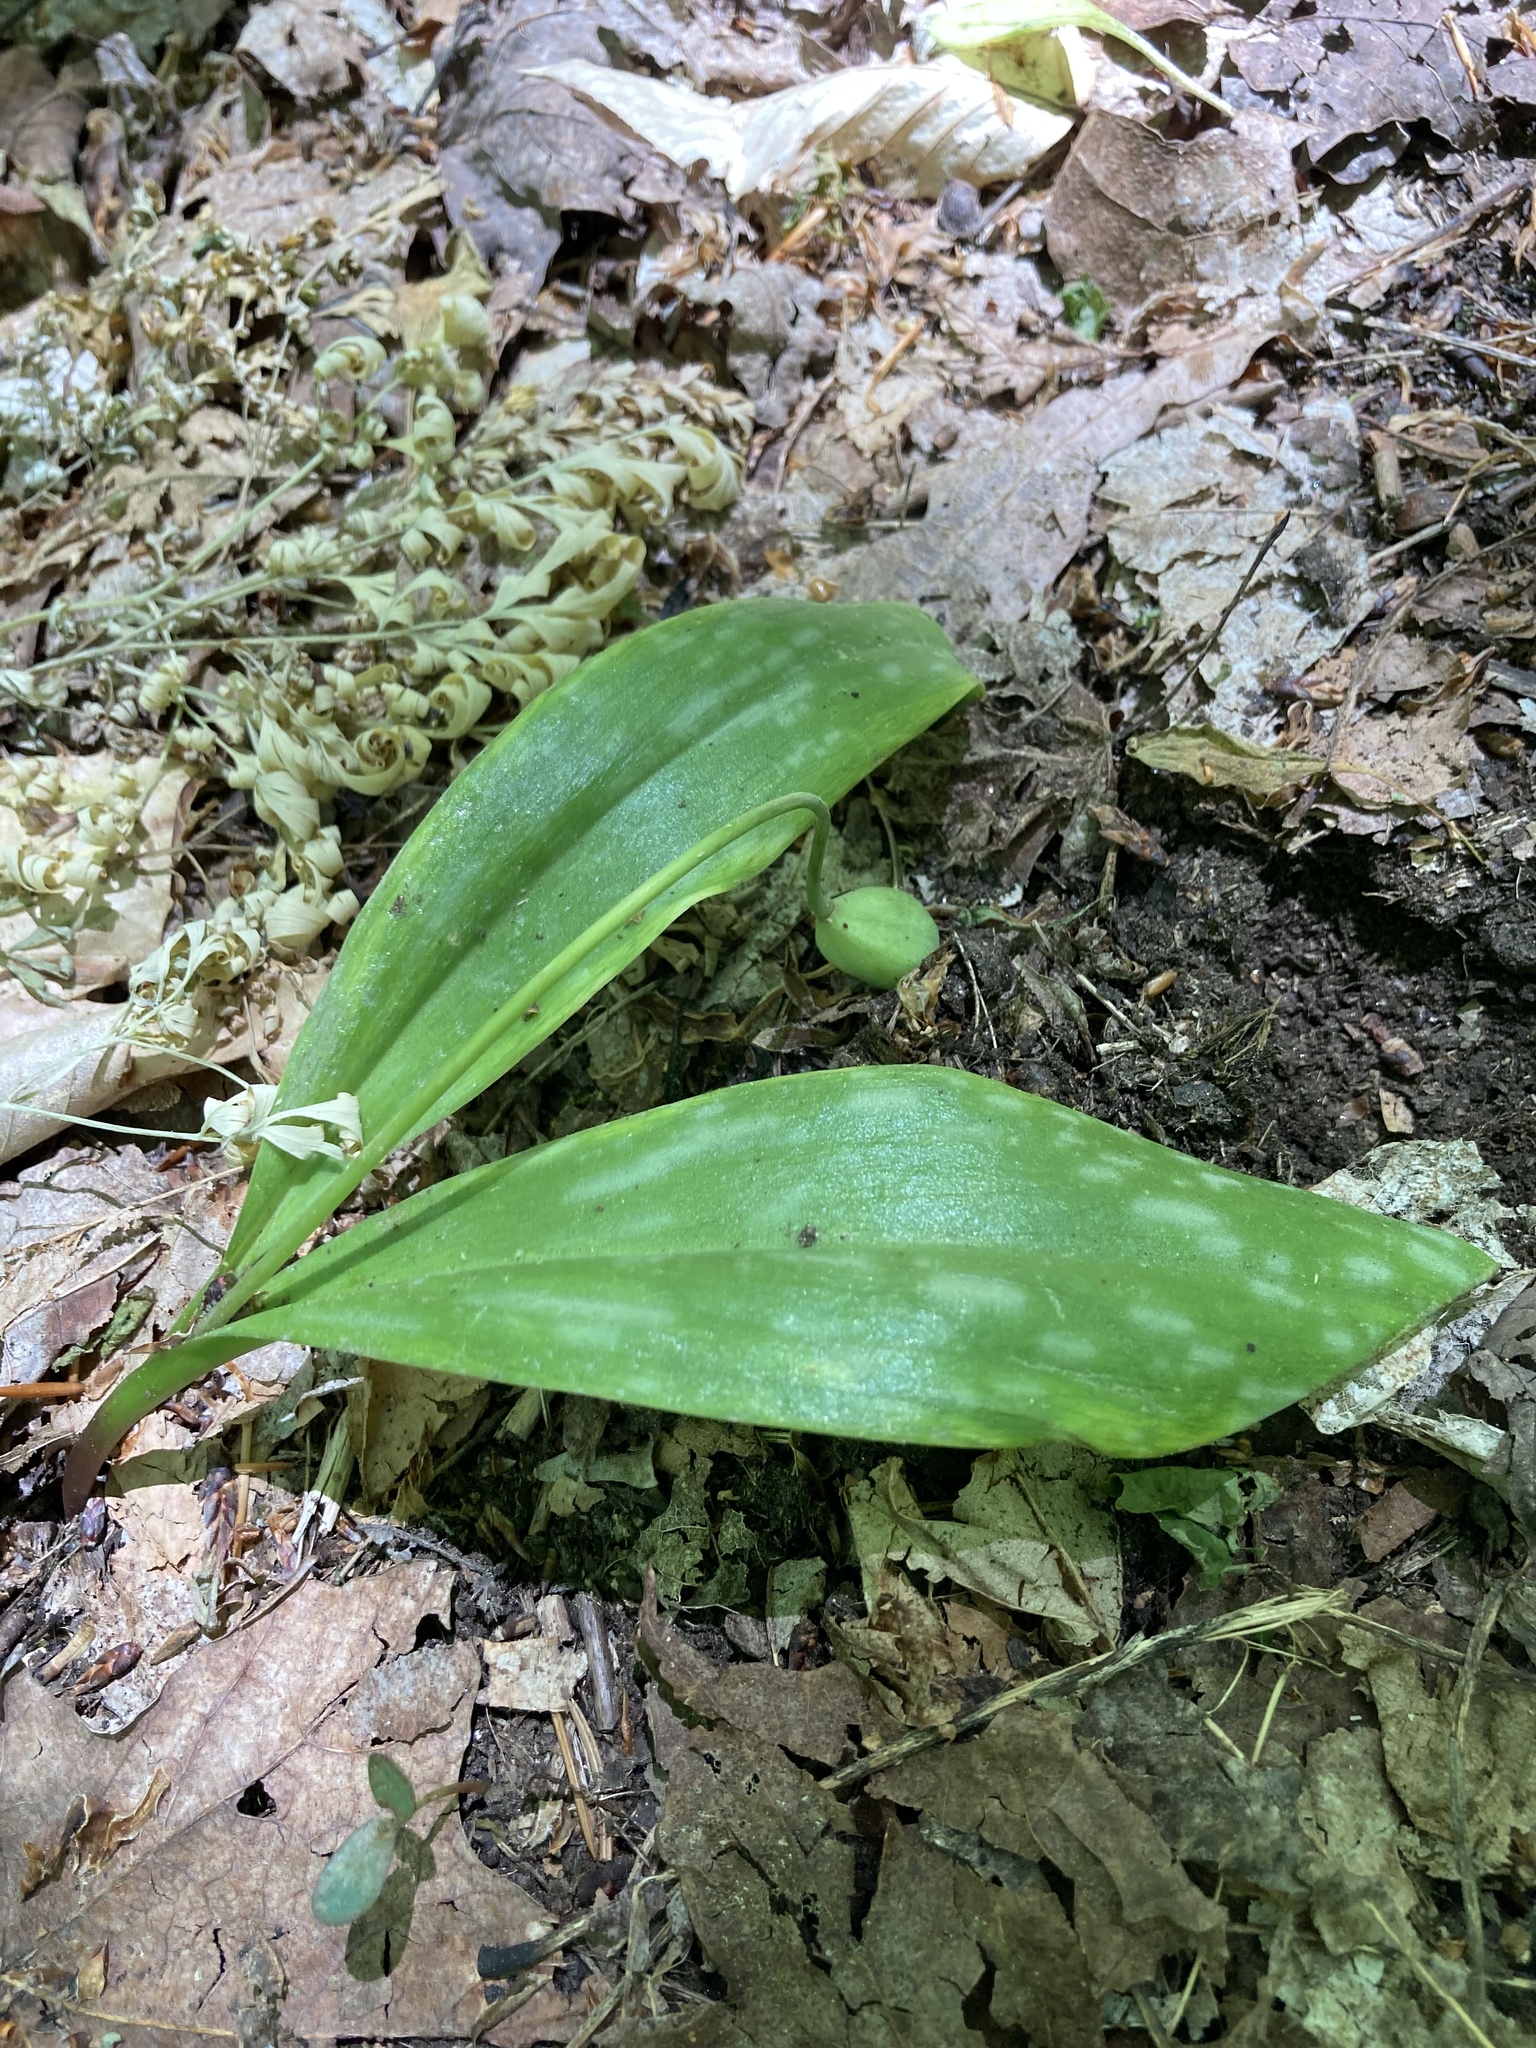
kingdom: Plantae
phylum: Tracheophyta
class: Liliopsida
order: Liliales
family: Liliaceae
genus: Erythronium
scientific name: Erythronium americanum
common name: Yellow adder's-tongue
